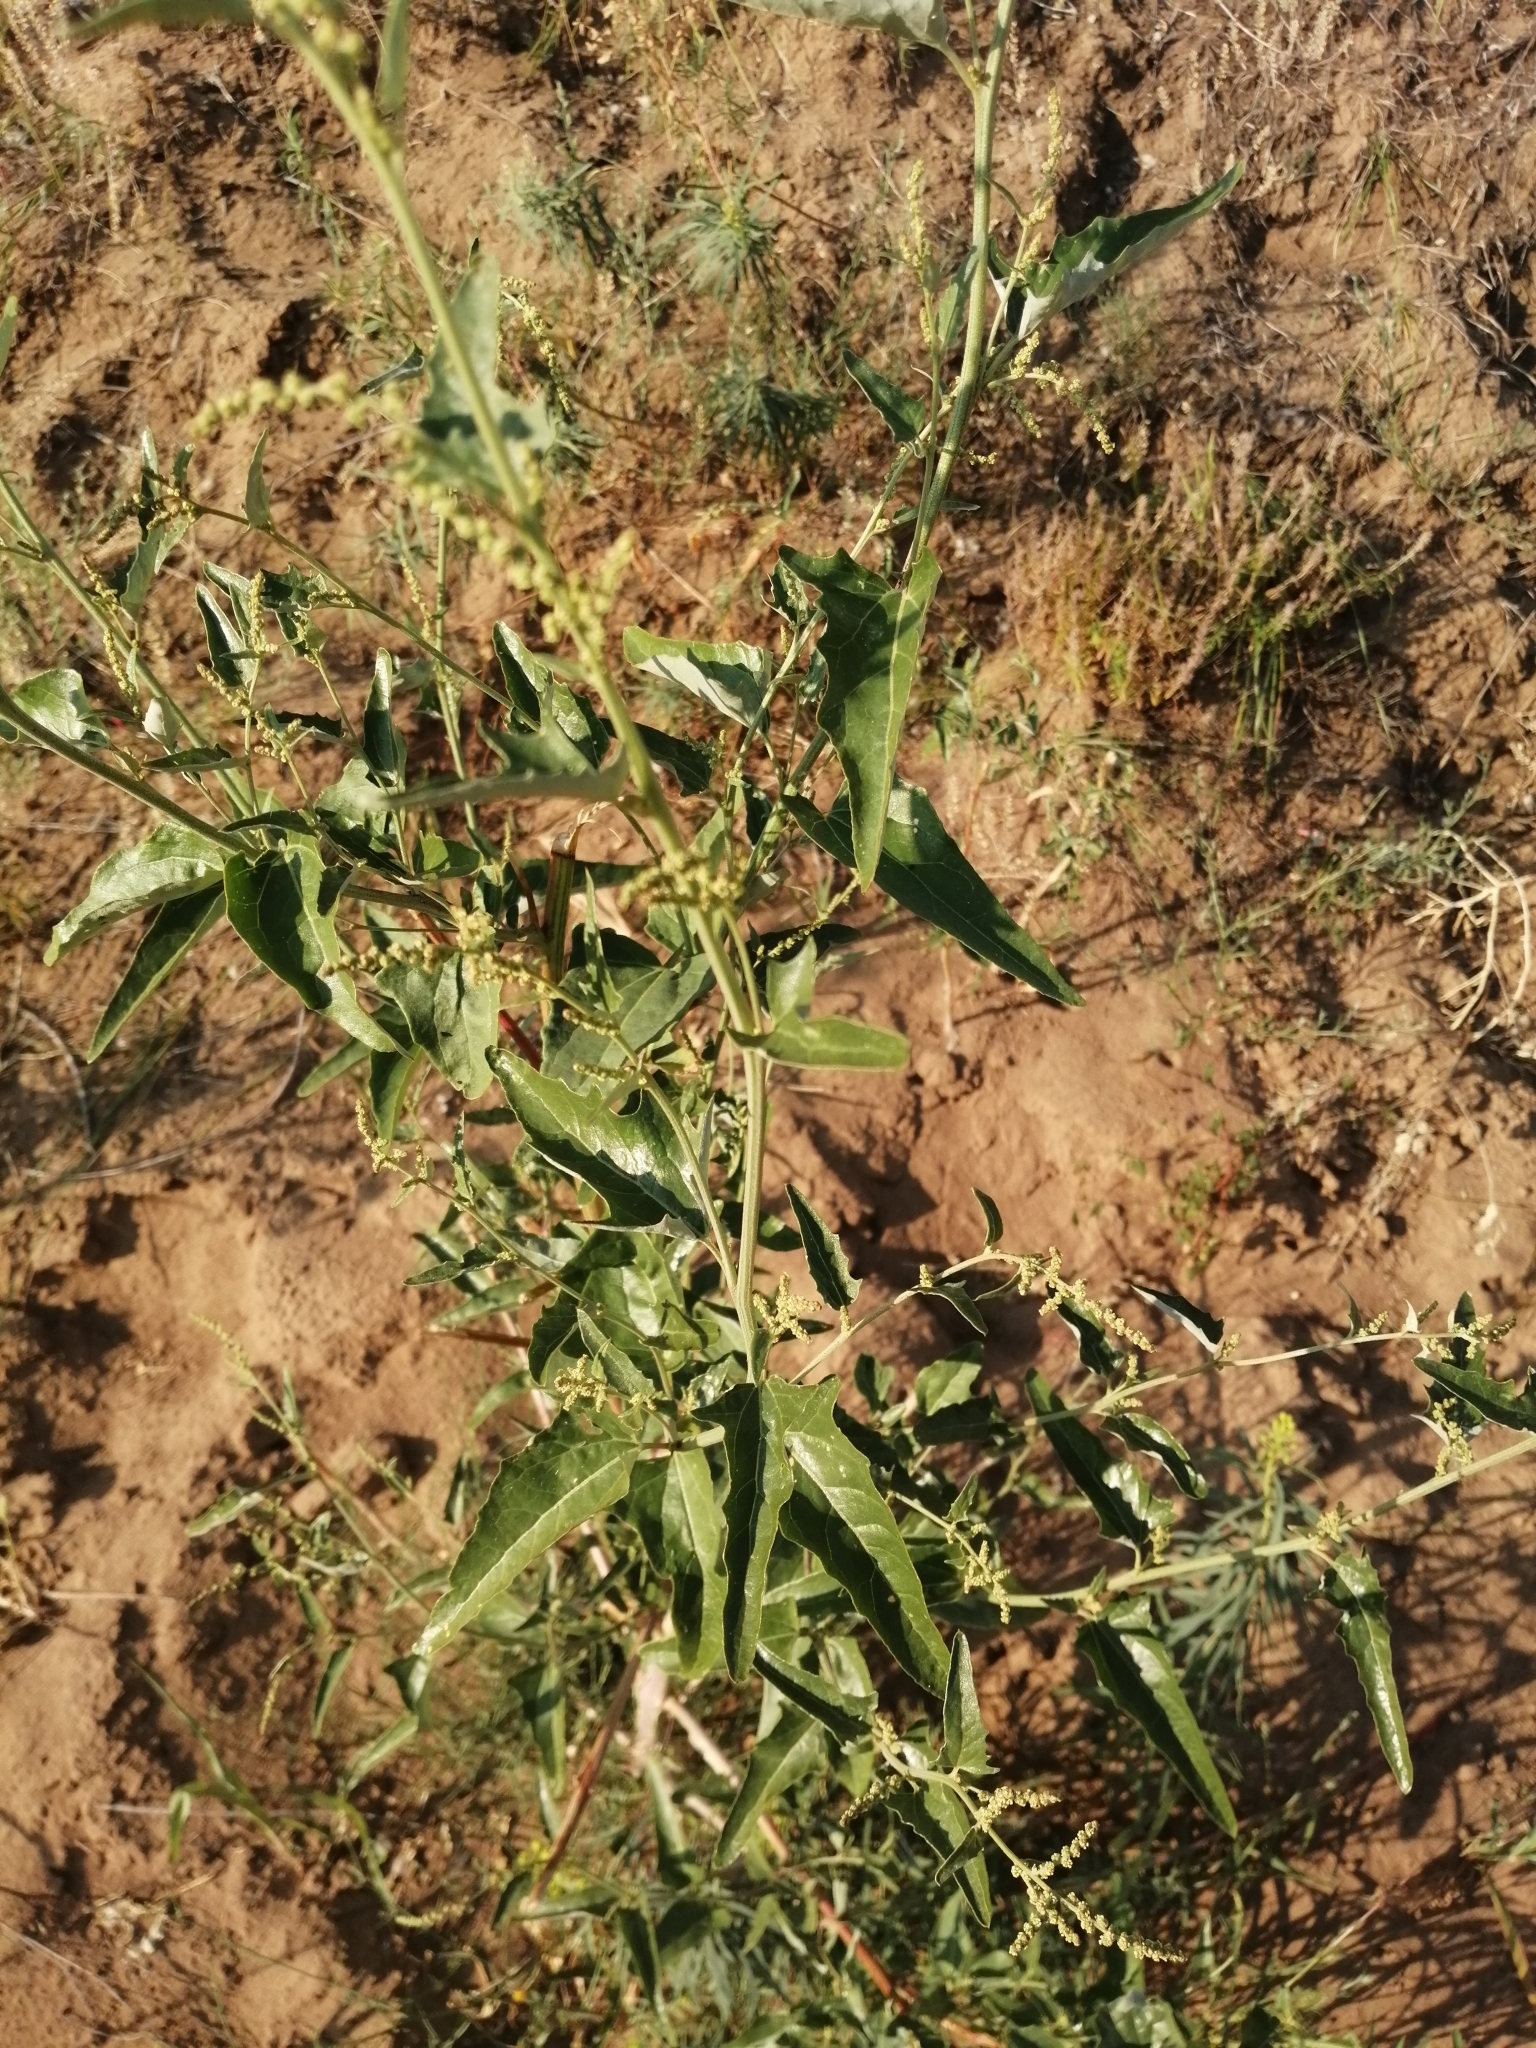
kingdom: Plantae
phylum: Tracheophyta
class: Magnoliopsida
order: Caryophyllales
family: Amaranthaceae
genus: Atriplex
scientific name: Atriplex micrantha
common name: Twoscale saltbush
